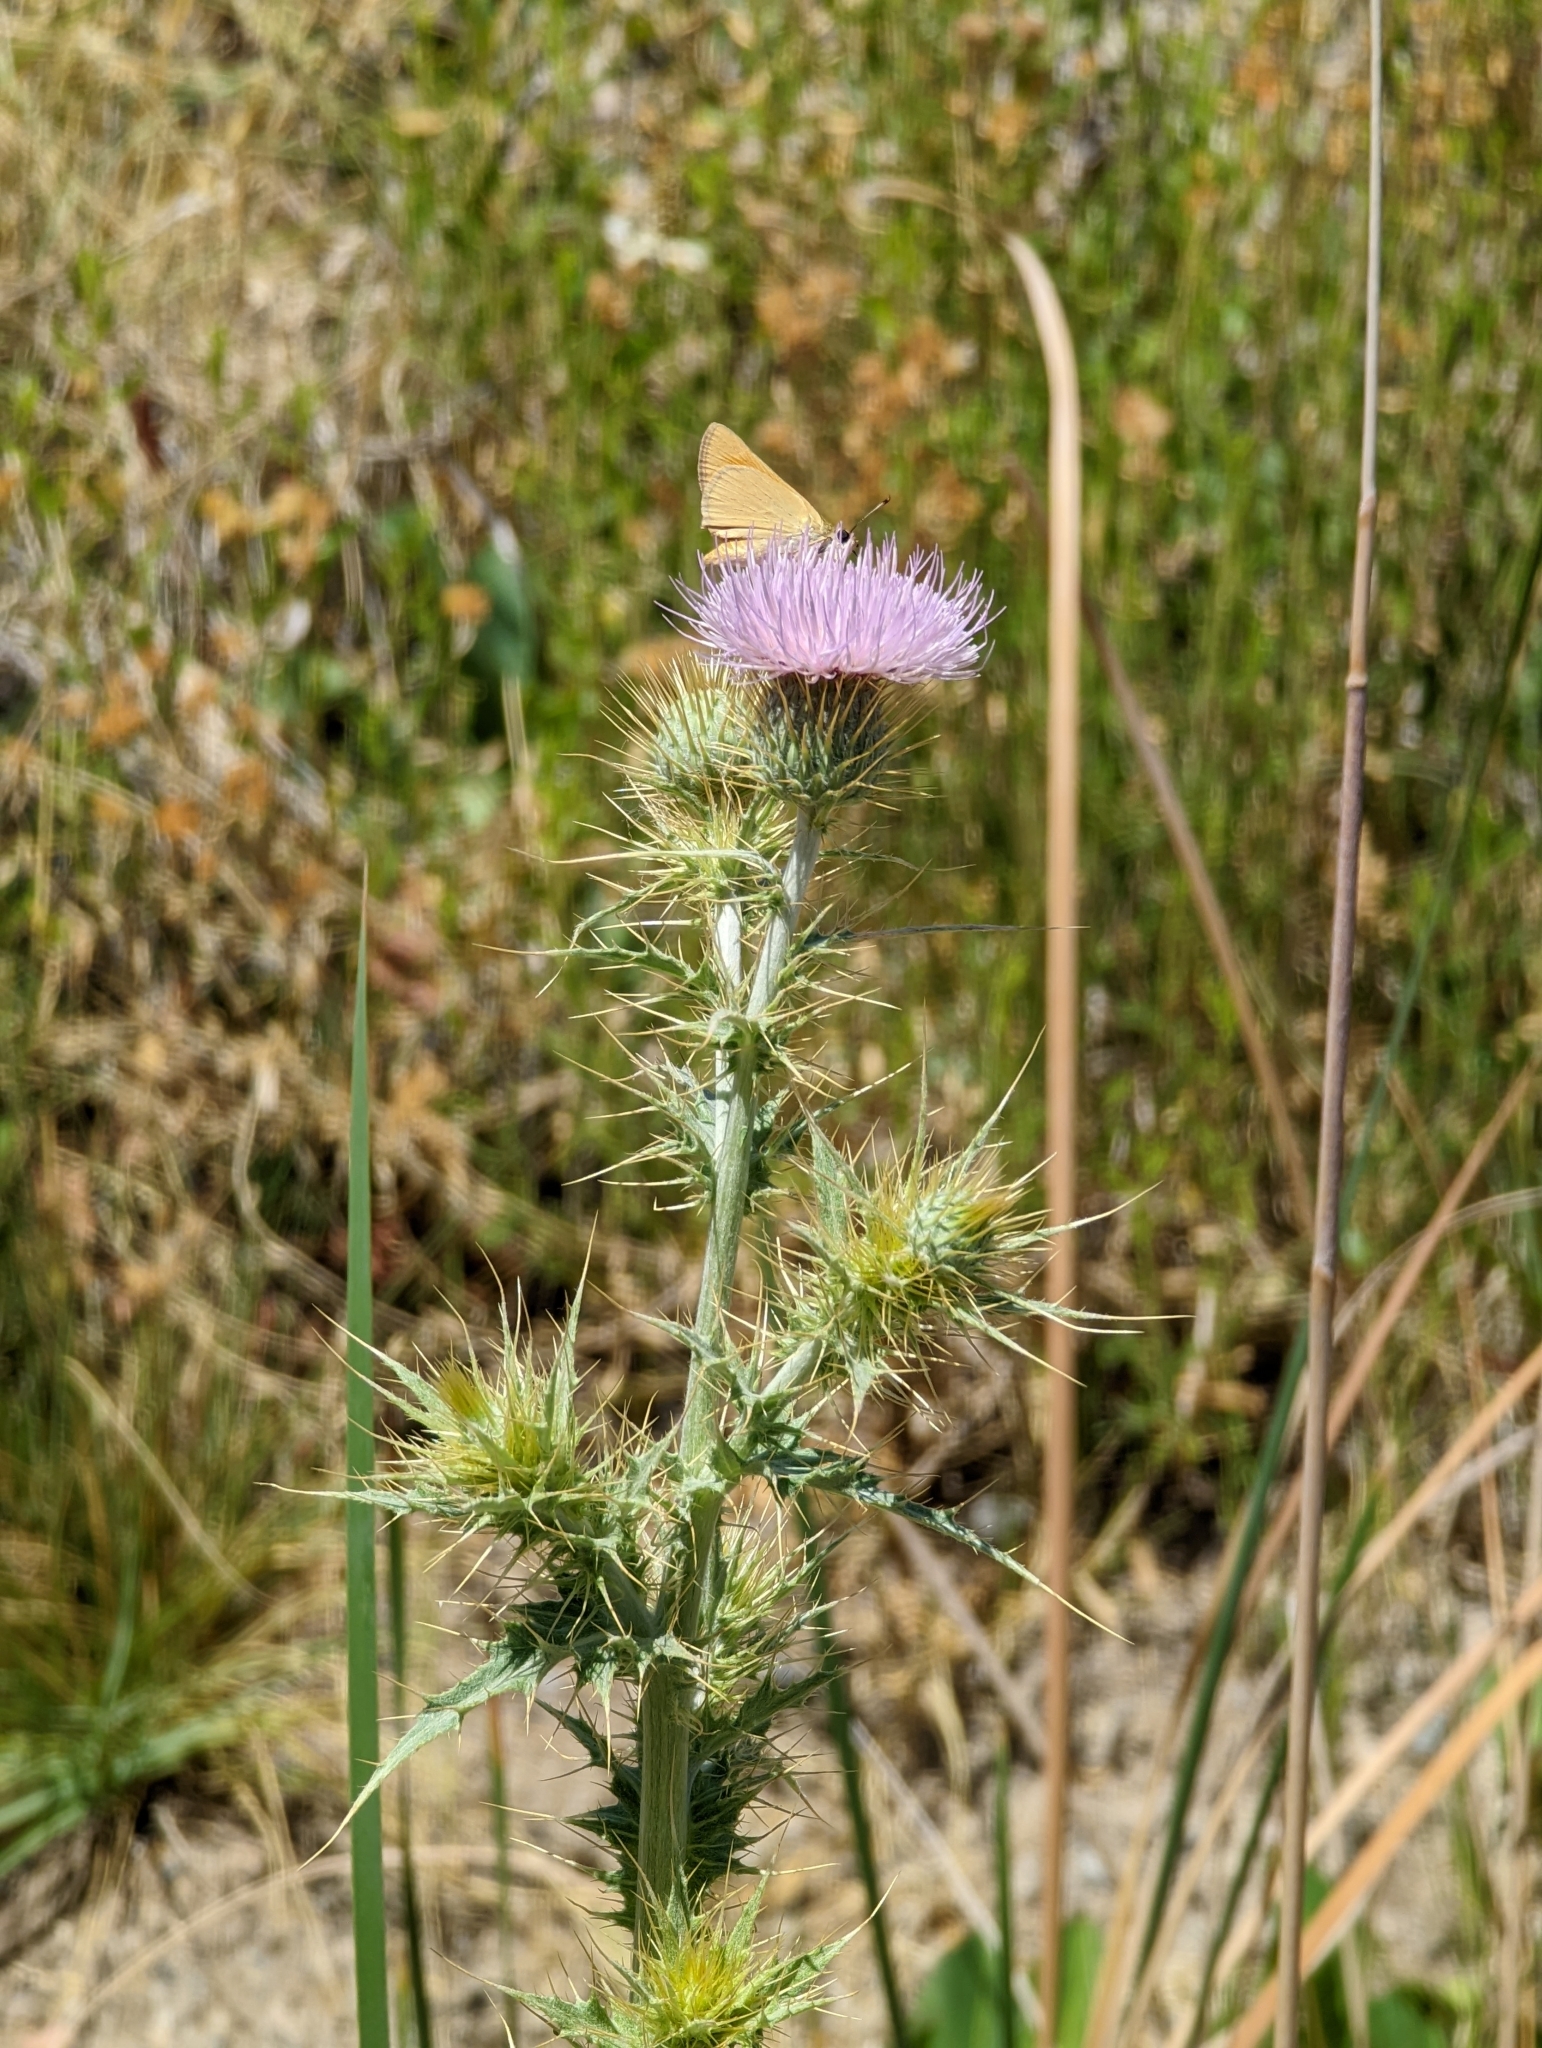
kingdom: Plantae
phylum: Tracheophyta
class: Magnoliopsida
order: Asterales
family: Asteraceae
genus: Cirsium
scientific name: Cirsium mohavense
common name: Mojave thistle
